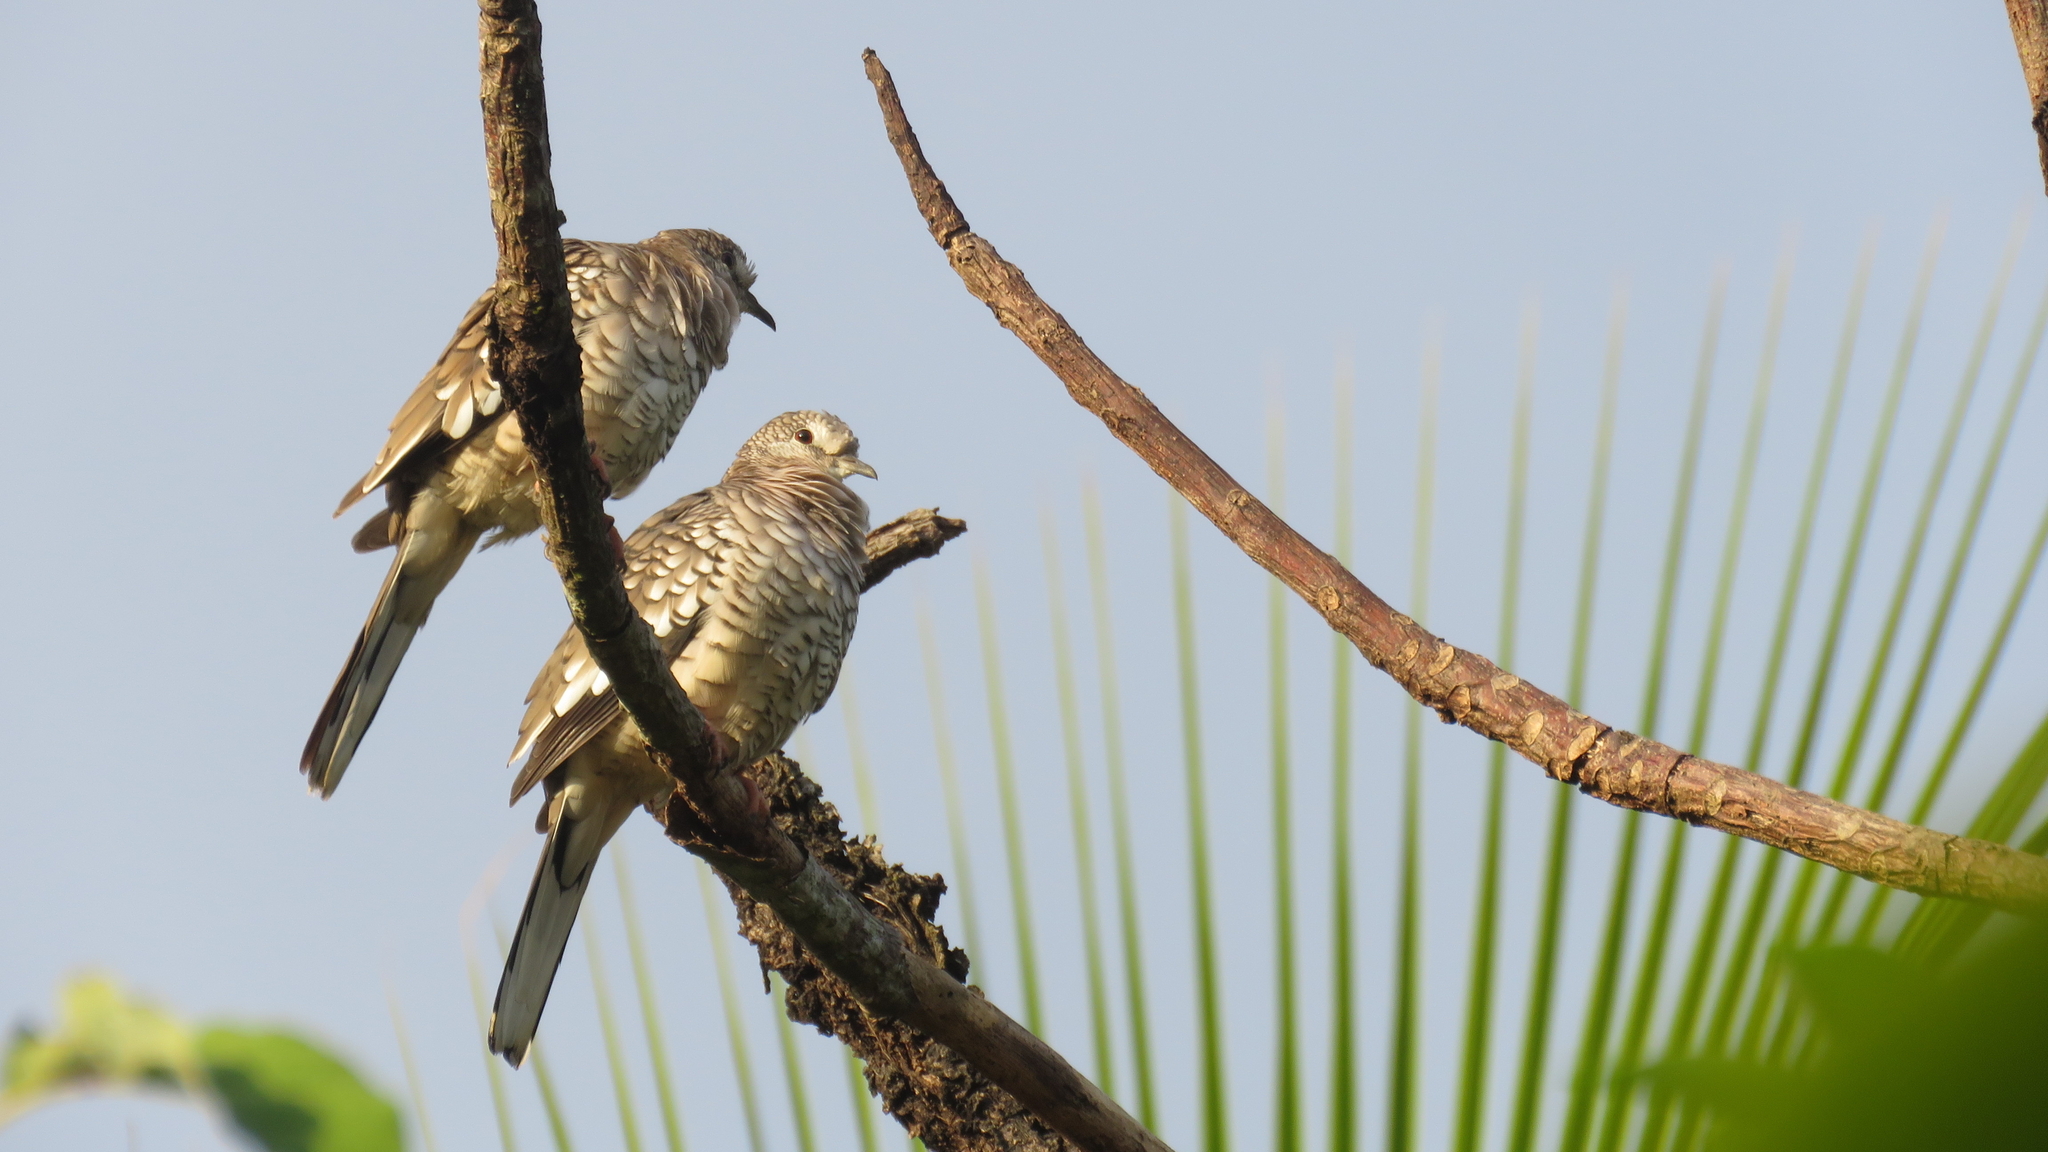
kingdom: Animalia
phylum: Chordata
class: Aves
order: Columbiformes
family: Columbidae
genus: Columbina
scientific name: Columbina squammata
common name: Scaled dove
